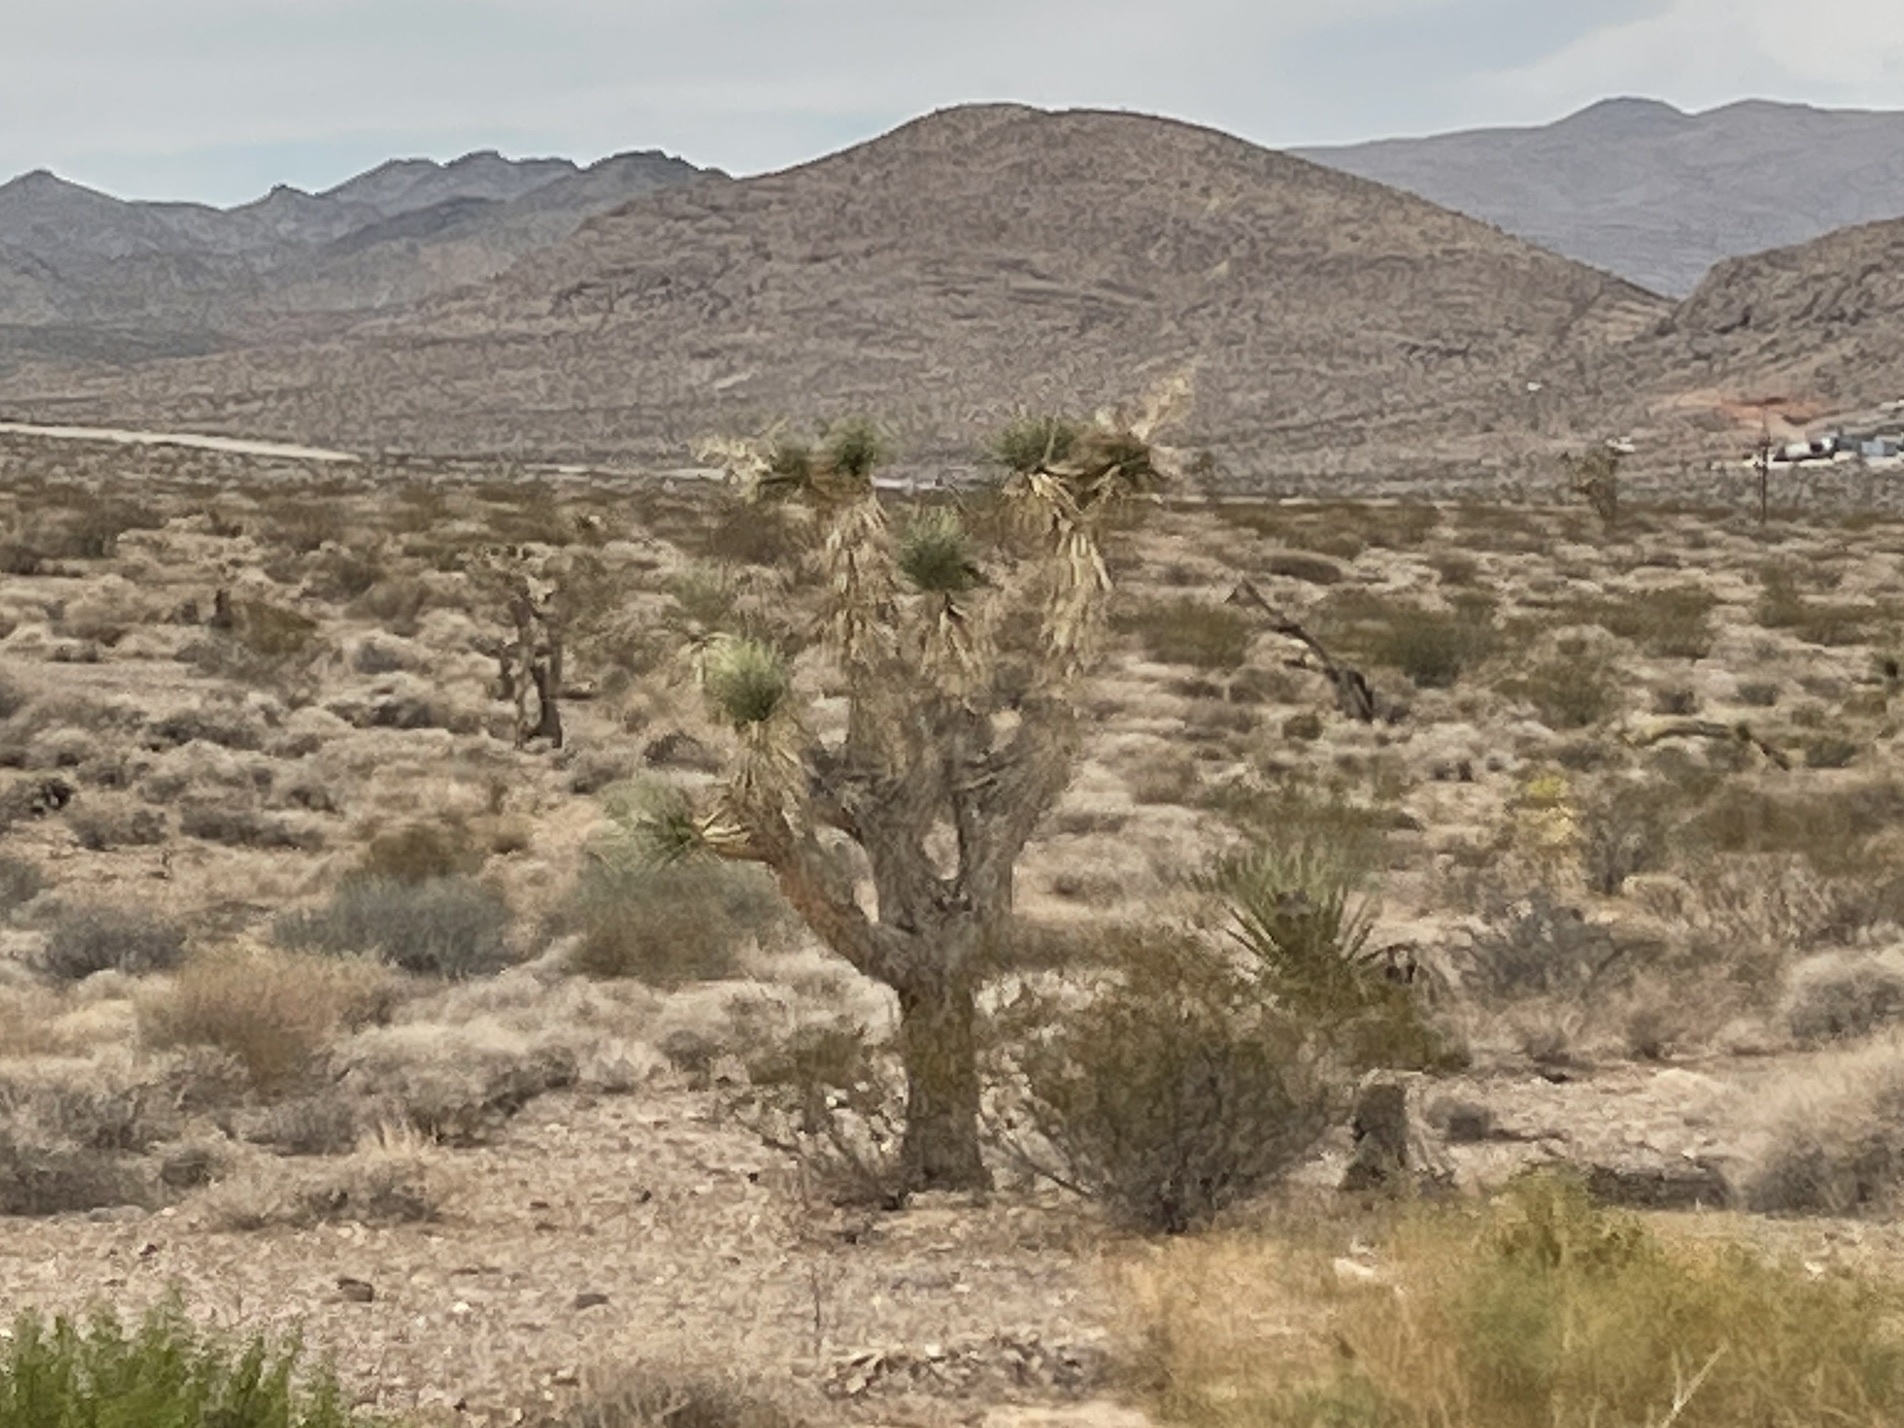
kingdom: Plantae
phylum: Tracheophyta
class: Liliopsida
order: Asparagales
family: Asparagaceae
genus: Yucca
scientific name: Yucca brevifolia
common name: Joshua tree
